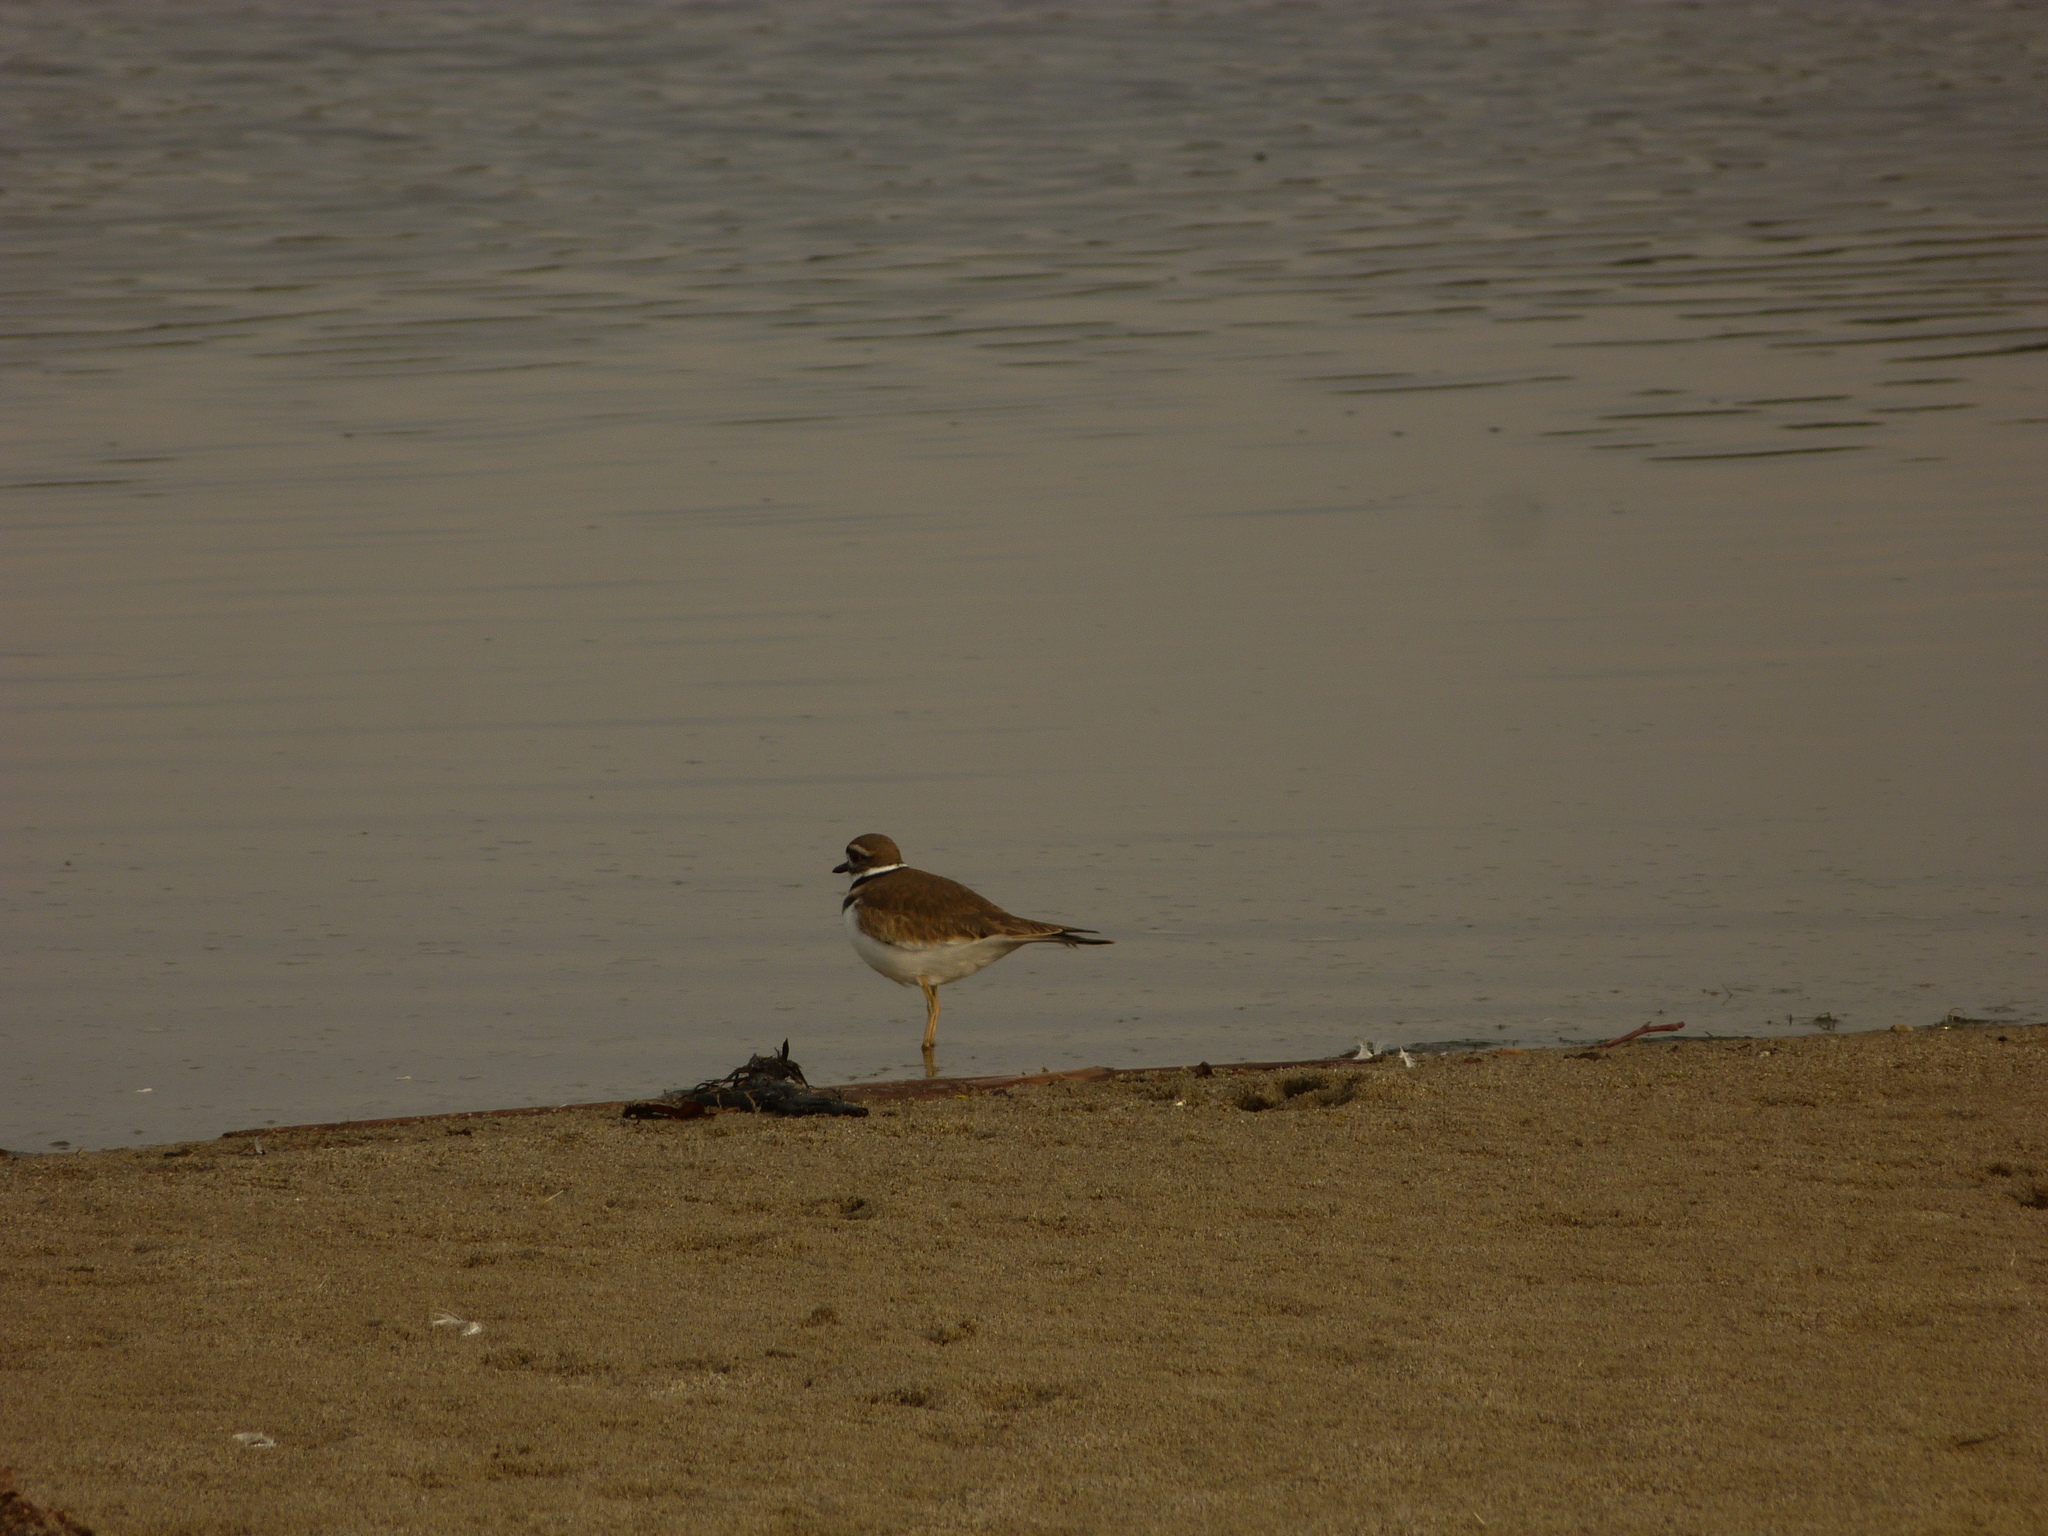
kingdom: Animalia
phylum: Chordata
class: Aves
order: Charadriiformes
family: Charadriidae
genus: Charadrius
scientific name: Charadrius vociferus
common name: Killdeer
